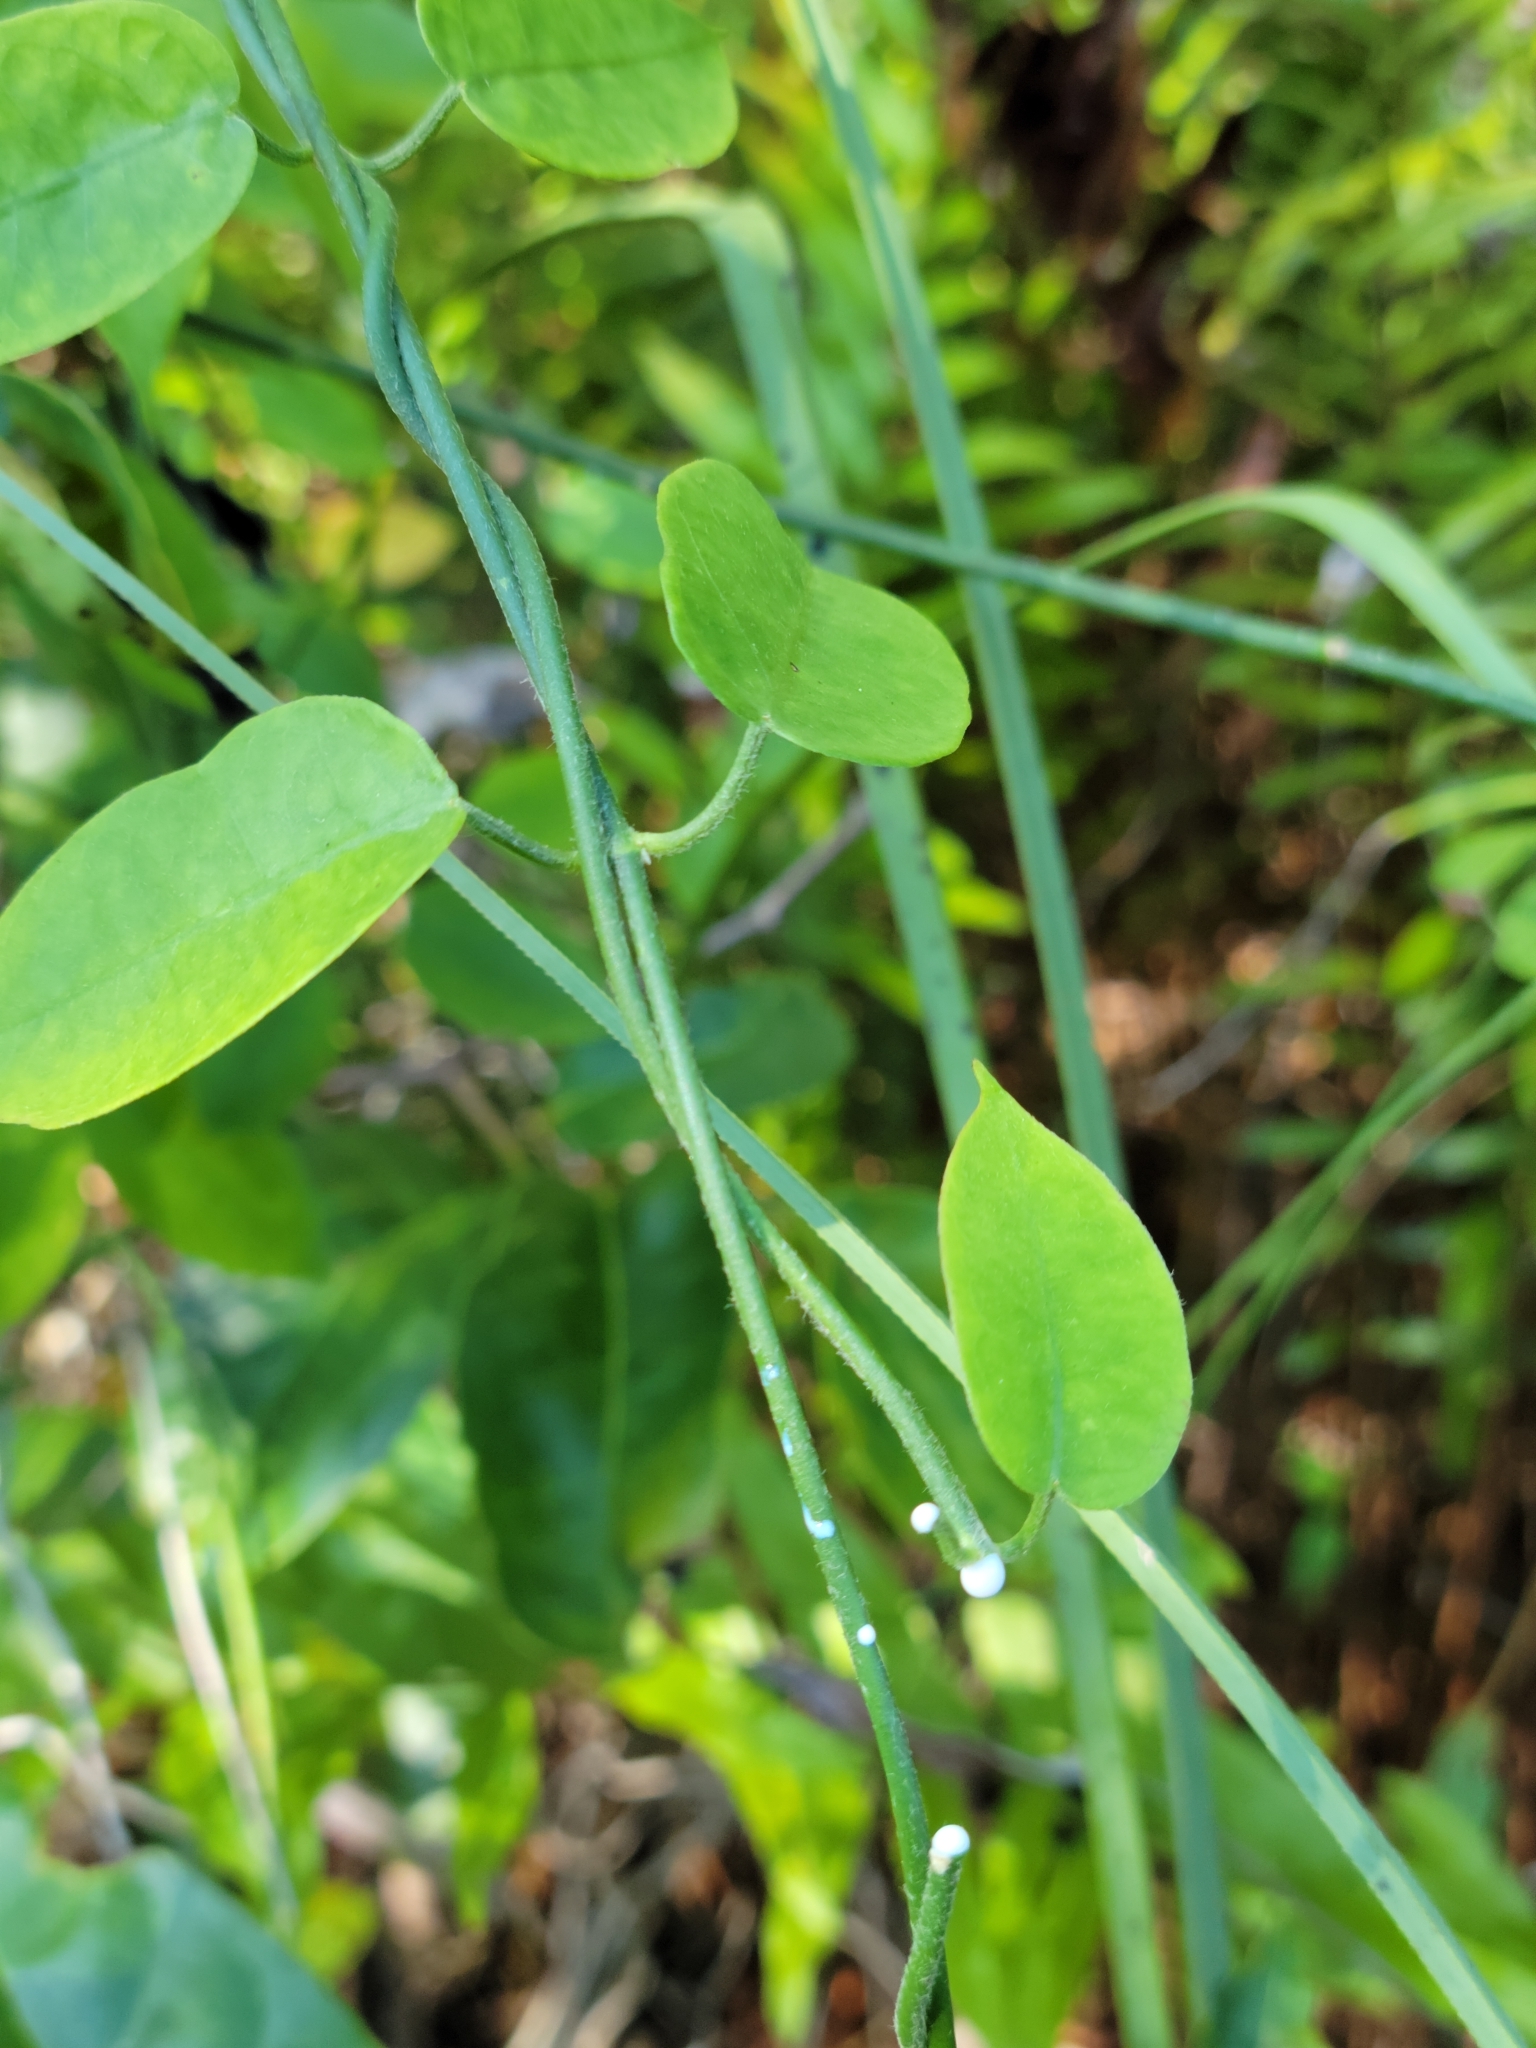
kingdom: Plantae
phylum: Tracheophyta
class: Magnoliopsida
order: Gentianales
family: Apocynaceae
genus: Funastrum
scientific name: Funastrum clausum
